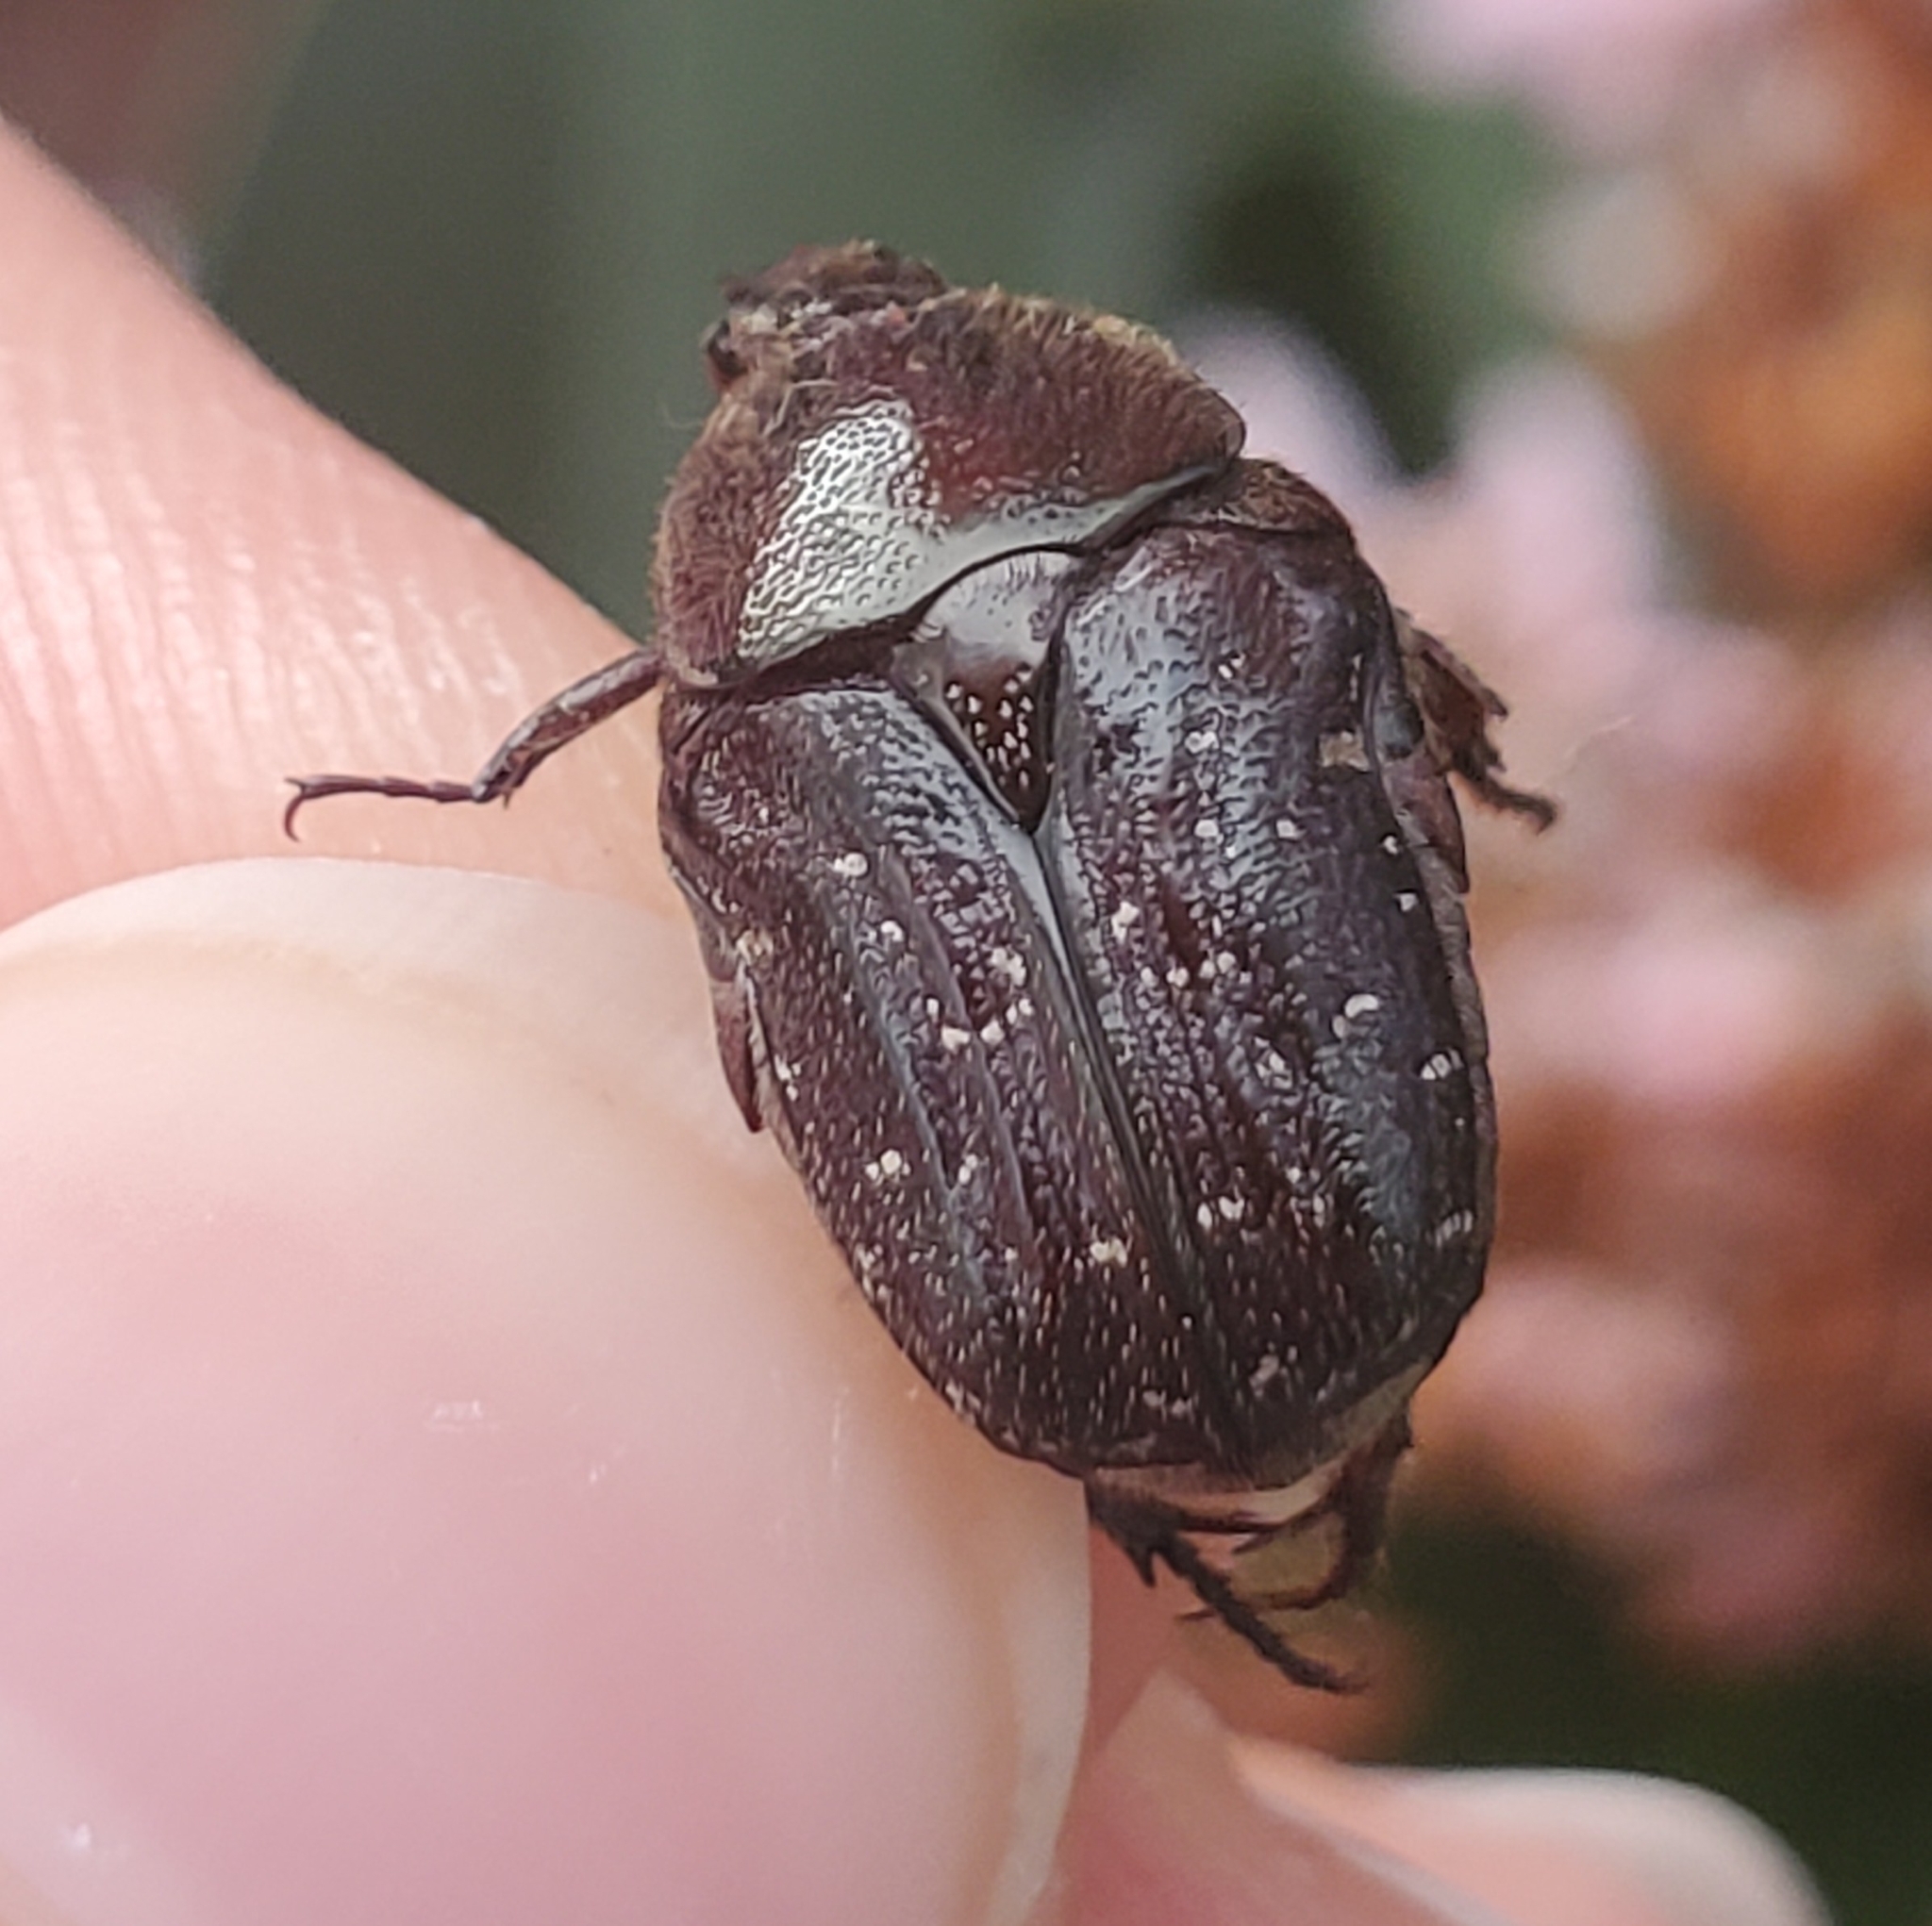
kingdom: Animalia
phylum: Arthropoda
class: Insecta
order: Coleoptera
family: Scarabaeidae
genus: Euphoria
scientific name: Euphoria sepulcralis
